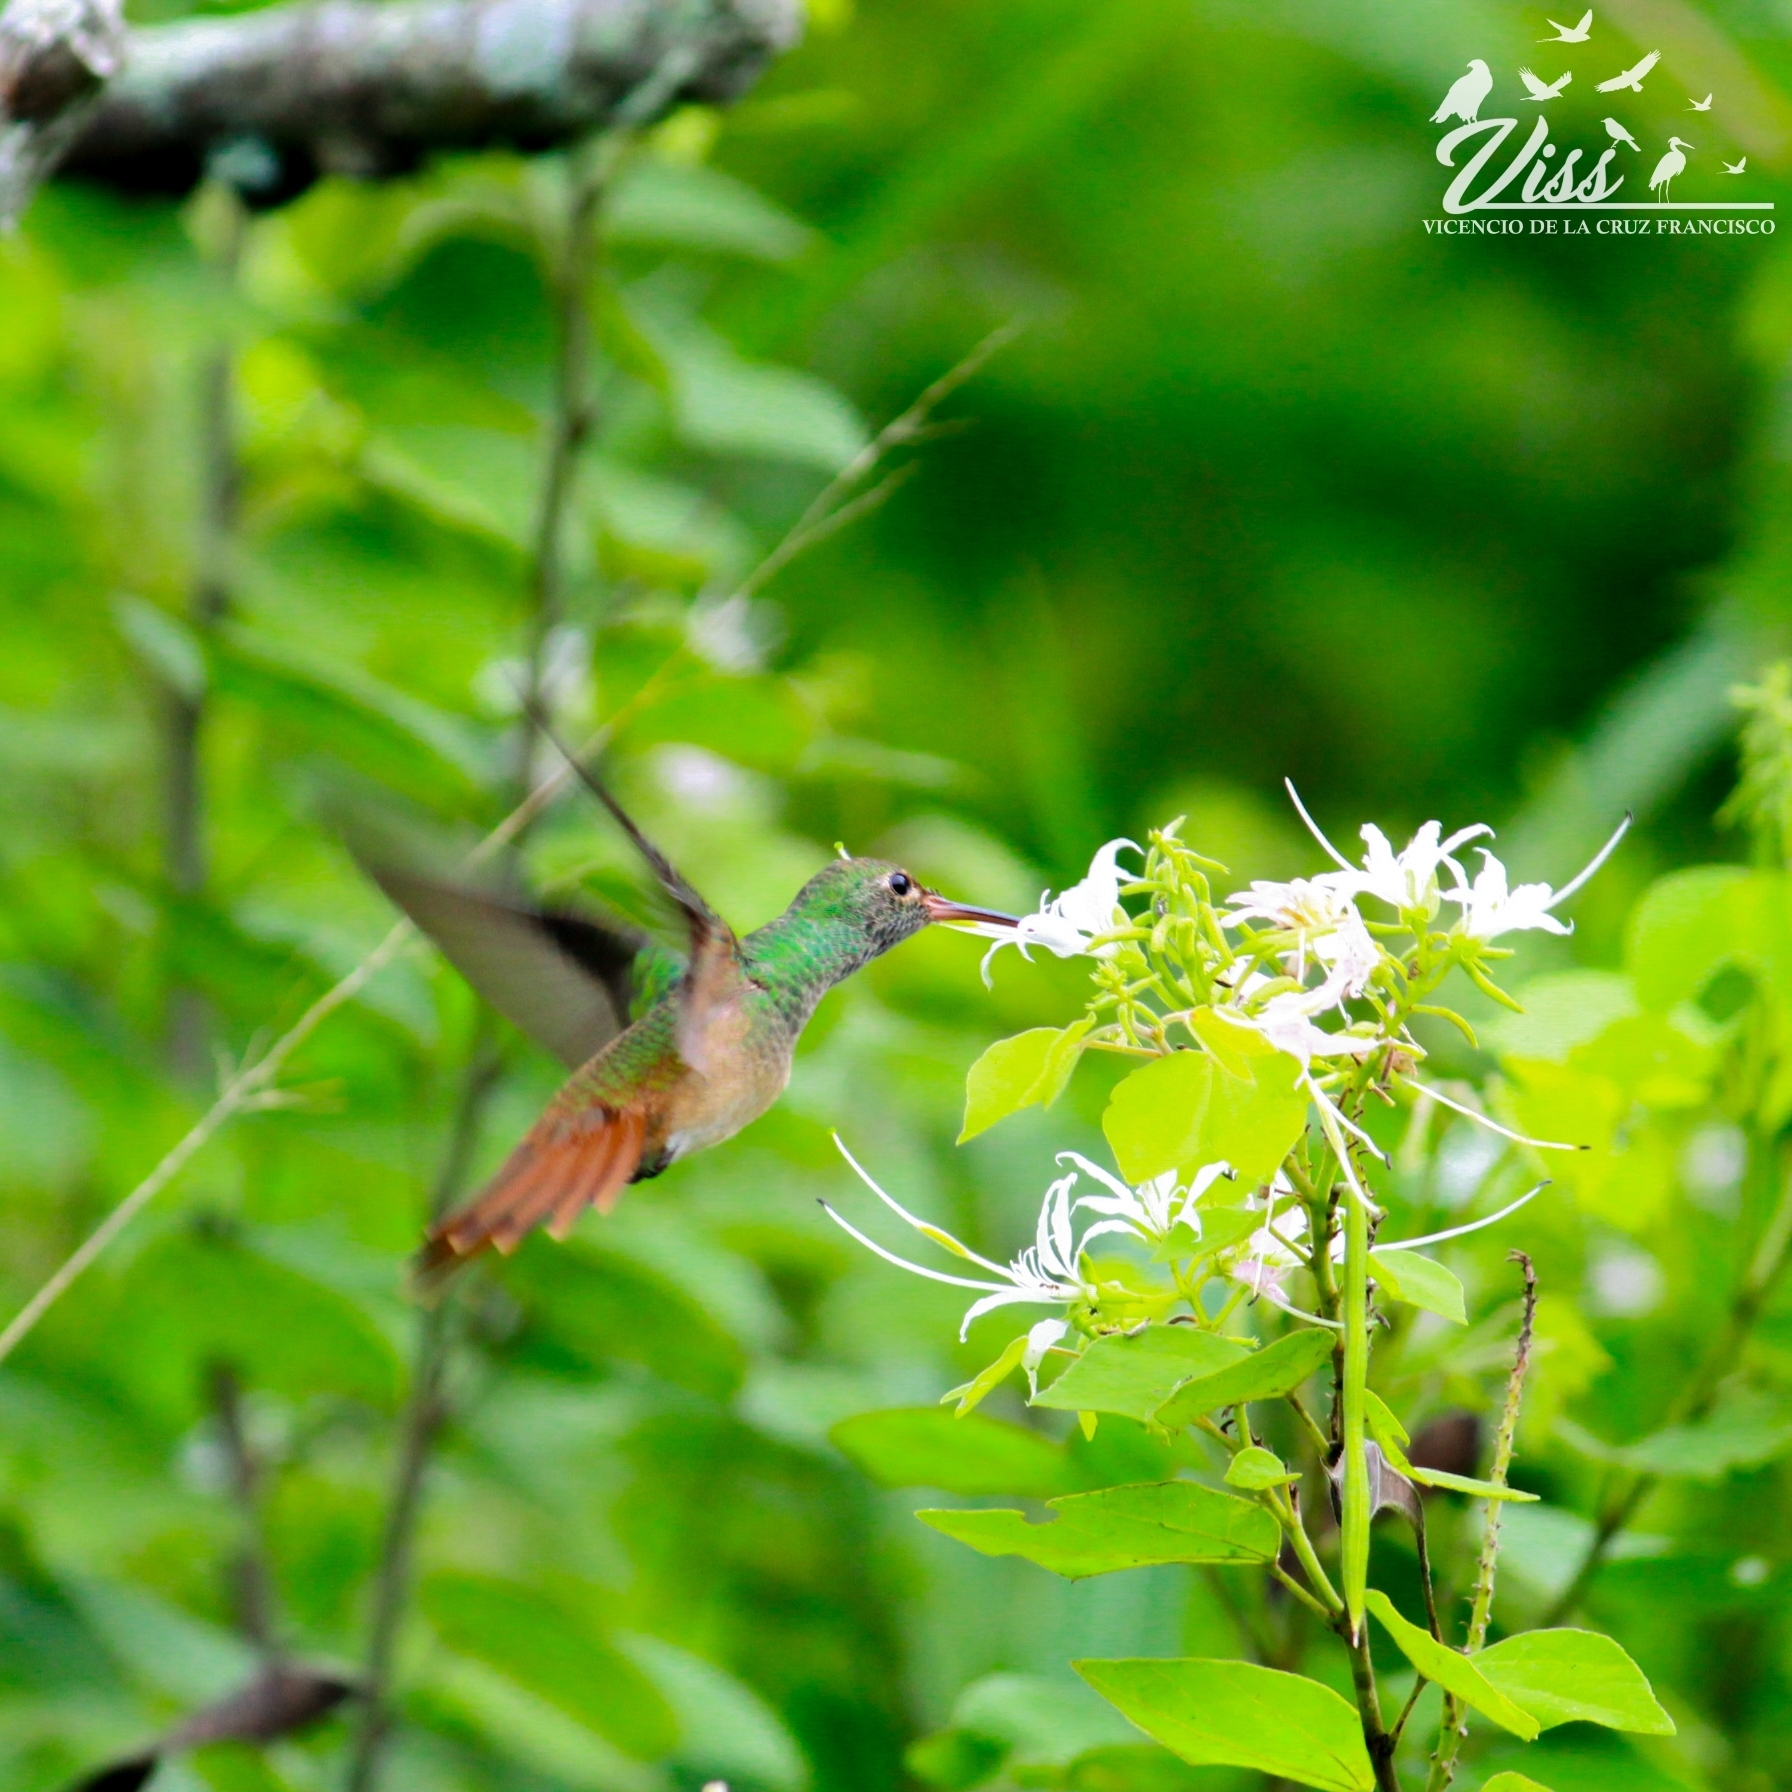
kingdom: Animalia
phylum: Chordata
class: Aves
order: Apodiformes
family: Trochilidae
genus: Amazilia
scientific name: Amazilia yucatanensis
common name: Buff-bellied hummingbird
